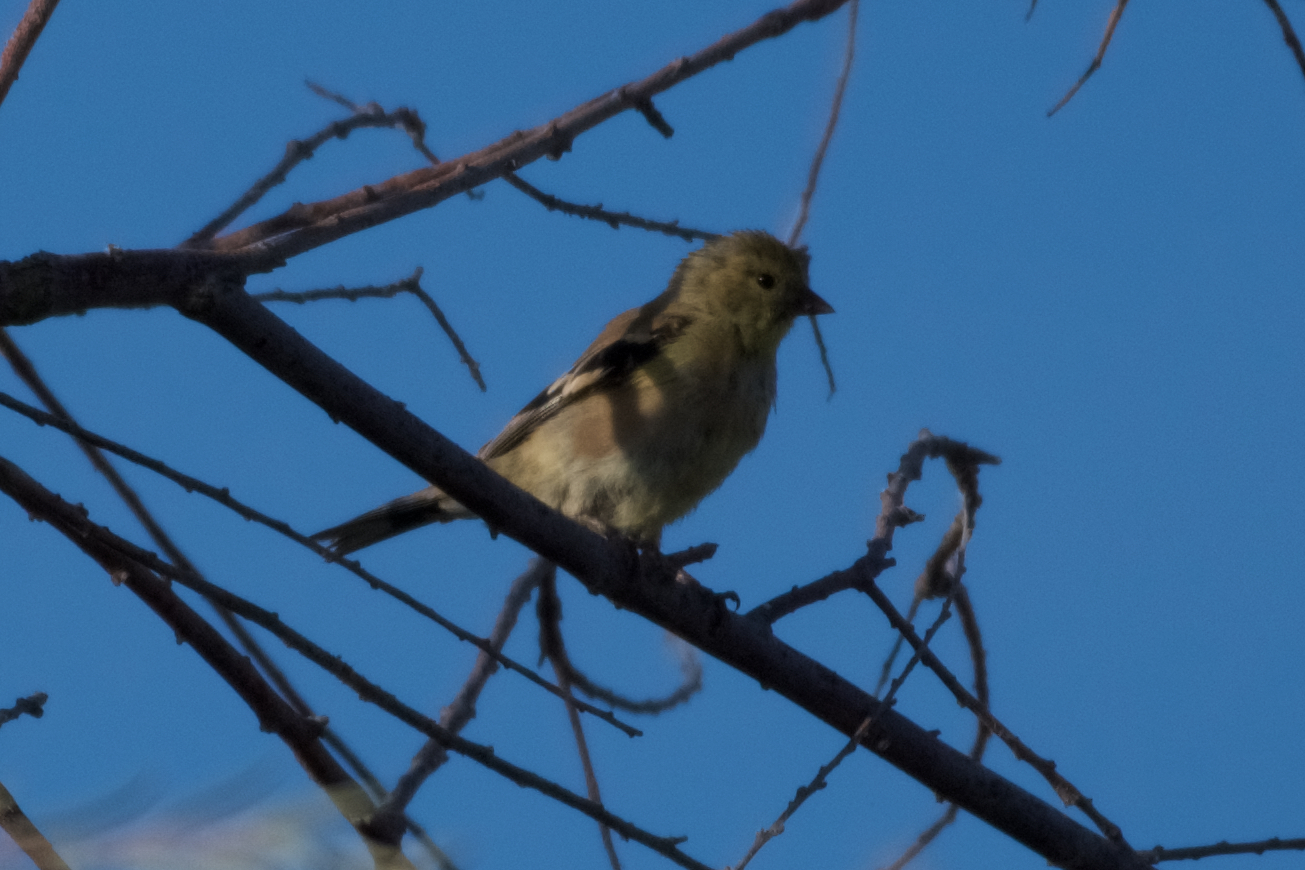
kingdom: Animalia
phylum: Chordata
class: Aves
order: Passeriformes
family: Fringillidae
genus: Spinus
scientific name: Spinus tristis
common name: American goldfinch
